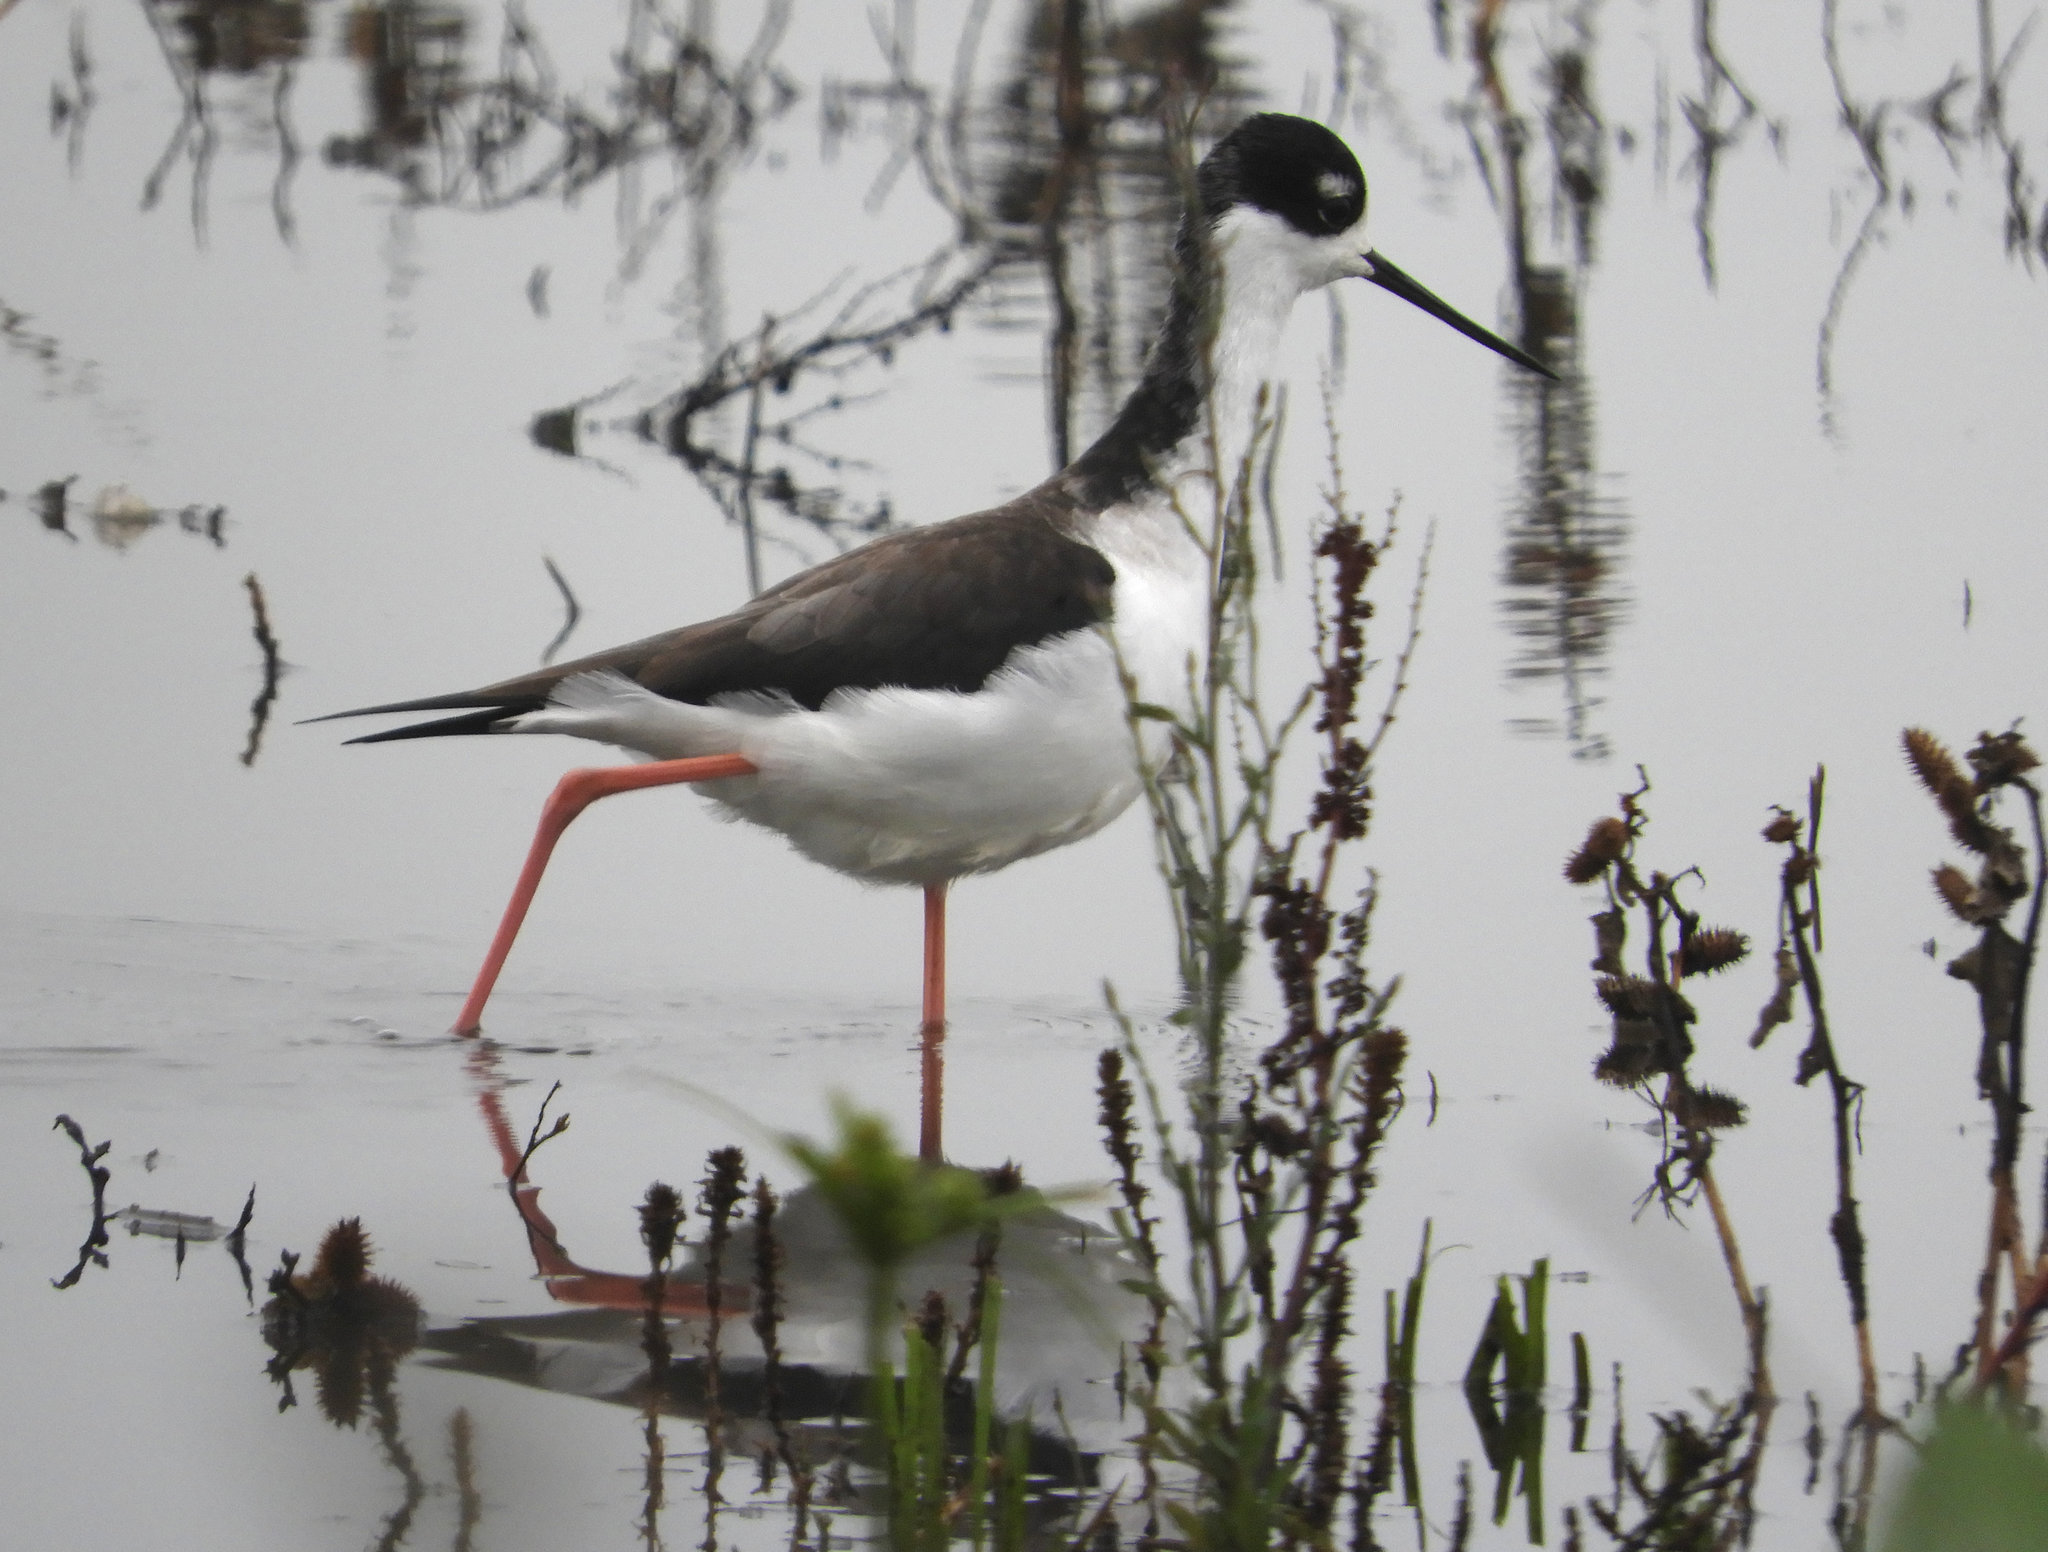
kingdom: Animalia
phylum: Chordata
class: Aves
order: Charadriiformes
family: Recurvirostridae
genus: Himantopus
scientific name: Himantopus mexicanus
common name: Black-necked stilt
